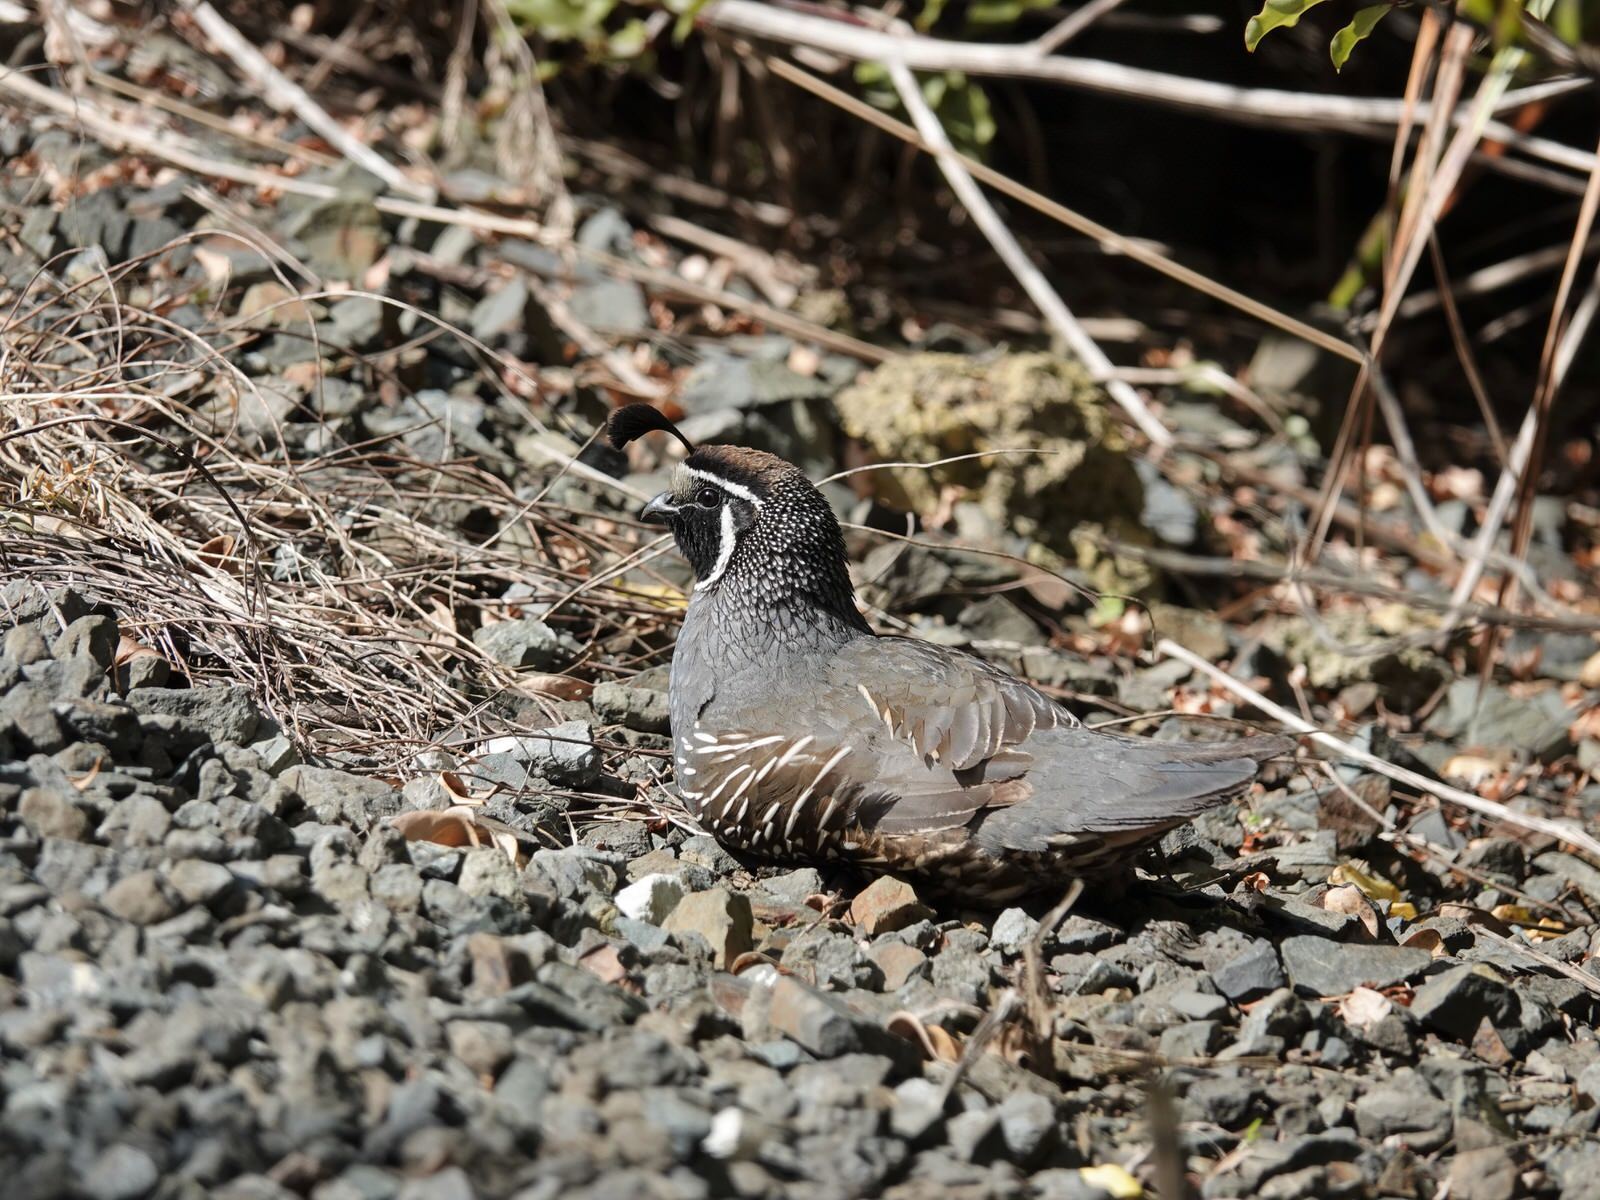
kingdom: Animalia
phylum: Chordata
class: Aves
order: Galliformes
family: Odontophoridae
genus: Callipepla
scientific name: Callipepla californica
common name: California quail
